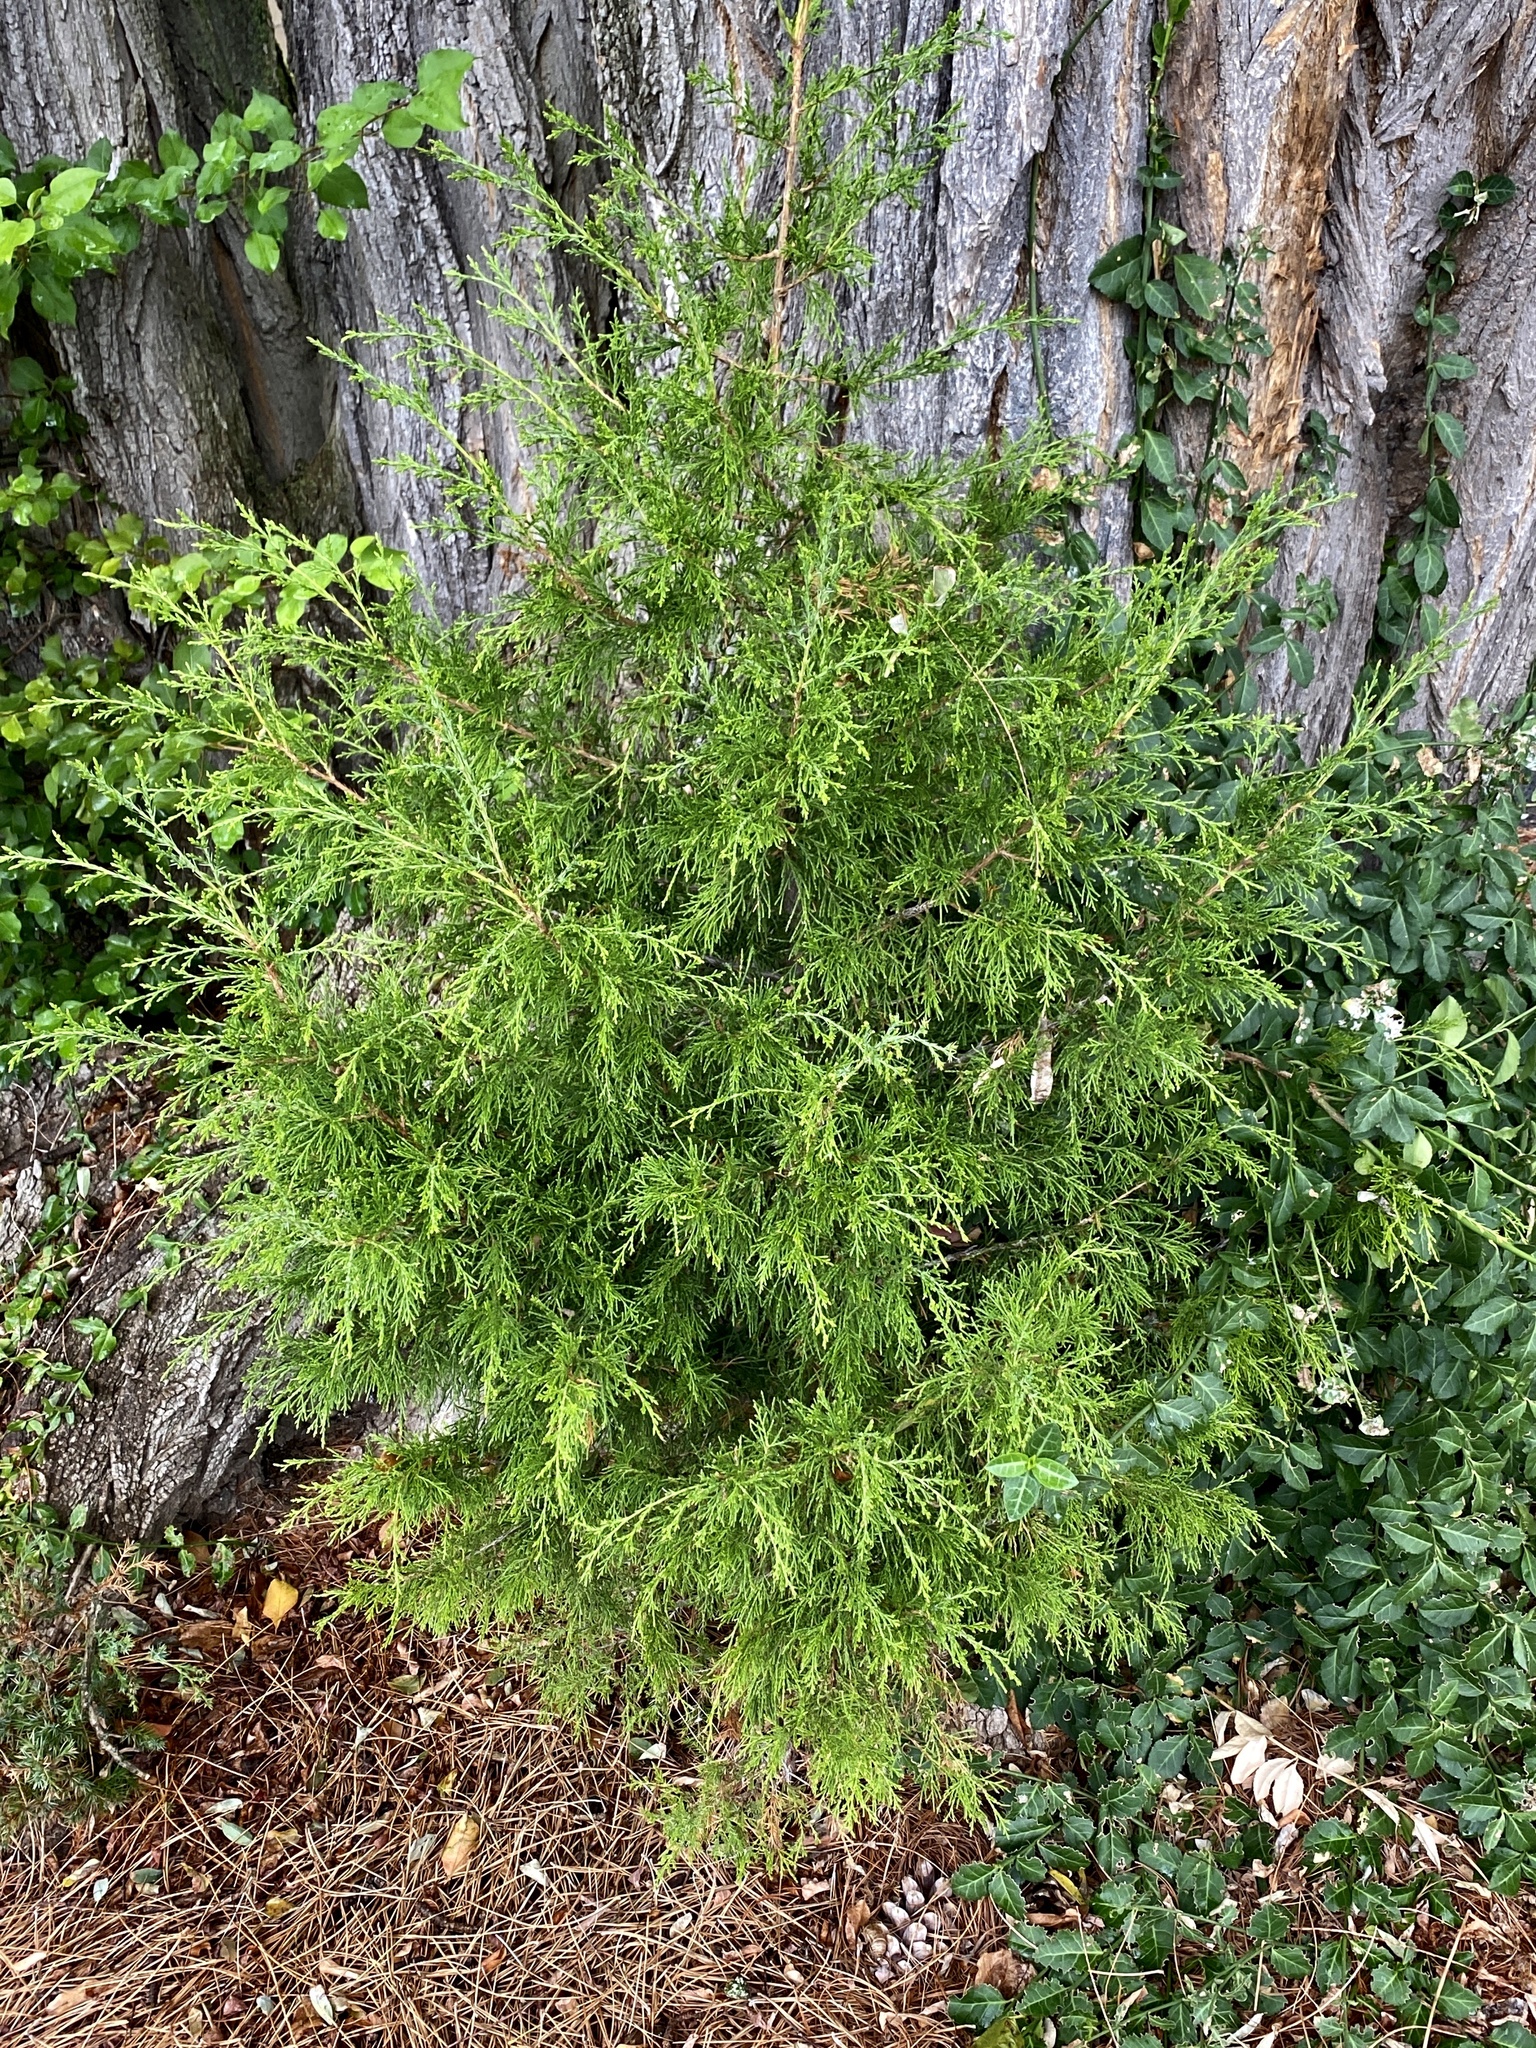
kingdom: Plantae
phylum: Tracheophyta
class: Pinopsida
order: Pinales
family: Cupressaceae
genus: Juniperus
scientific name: Juniperus virginiana
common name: Red juniper
